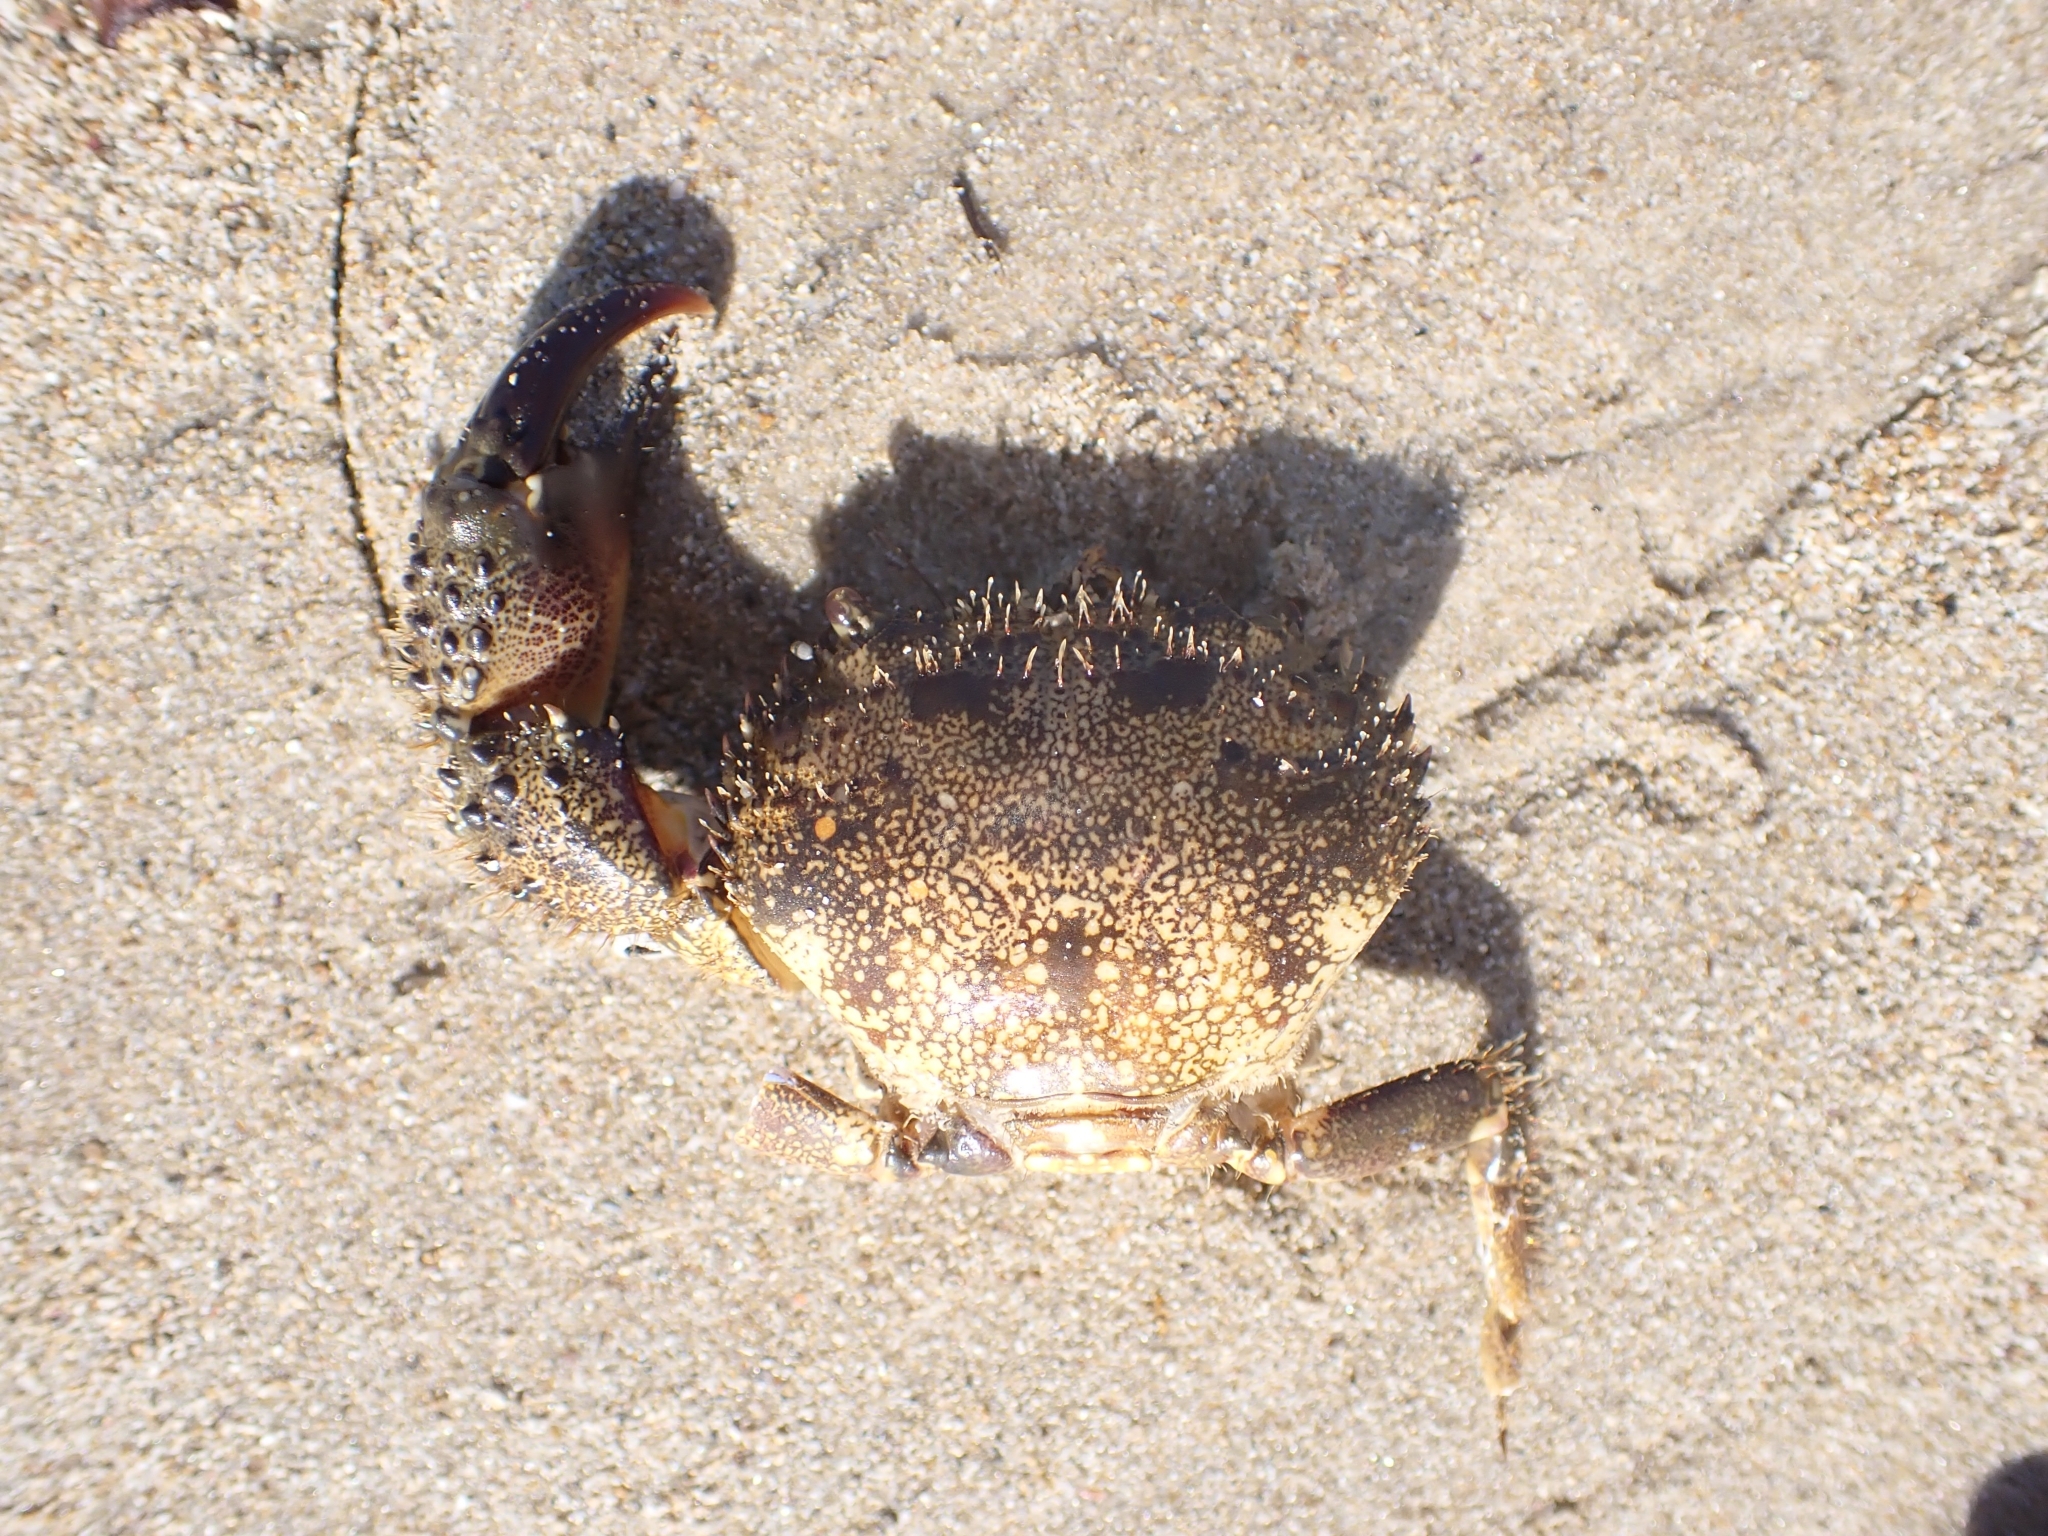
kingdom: Animalia
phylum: Arthropoda
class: Malacostraca
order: Decapoda
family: Eriphiidae
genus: Eriphia
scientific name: Eriphia verrucosa
